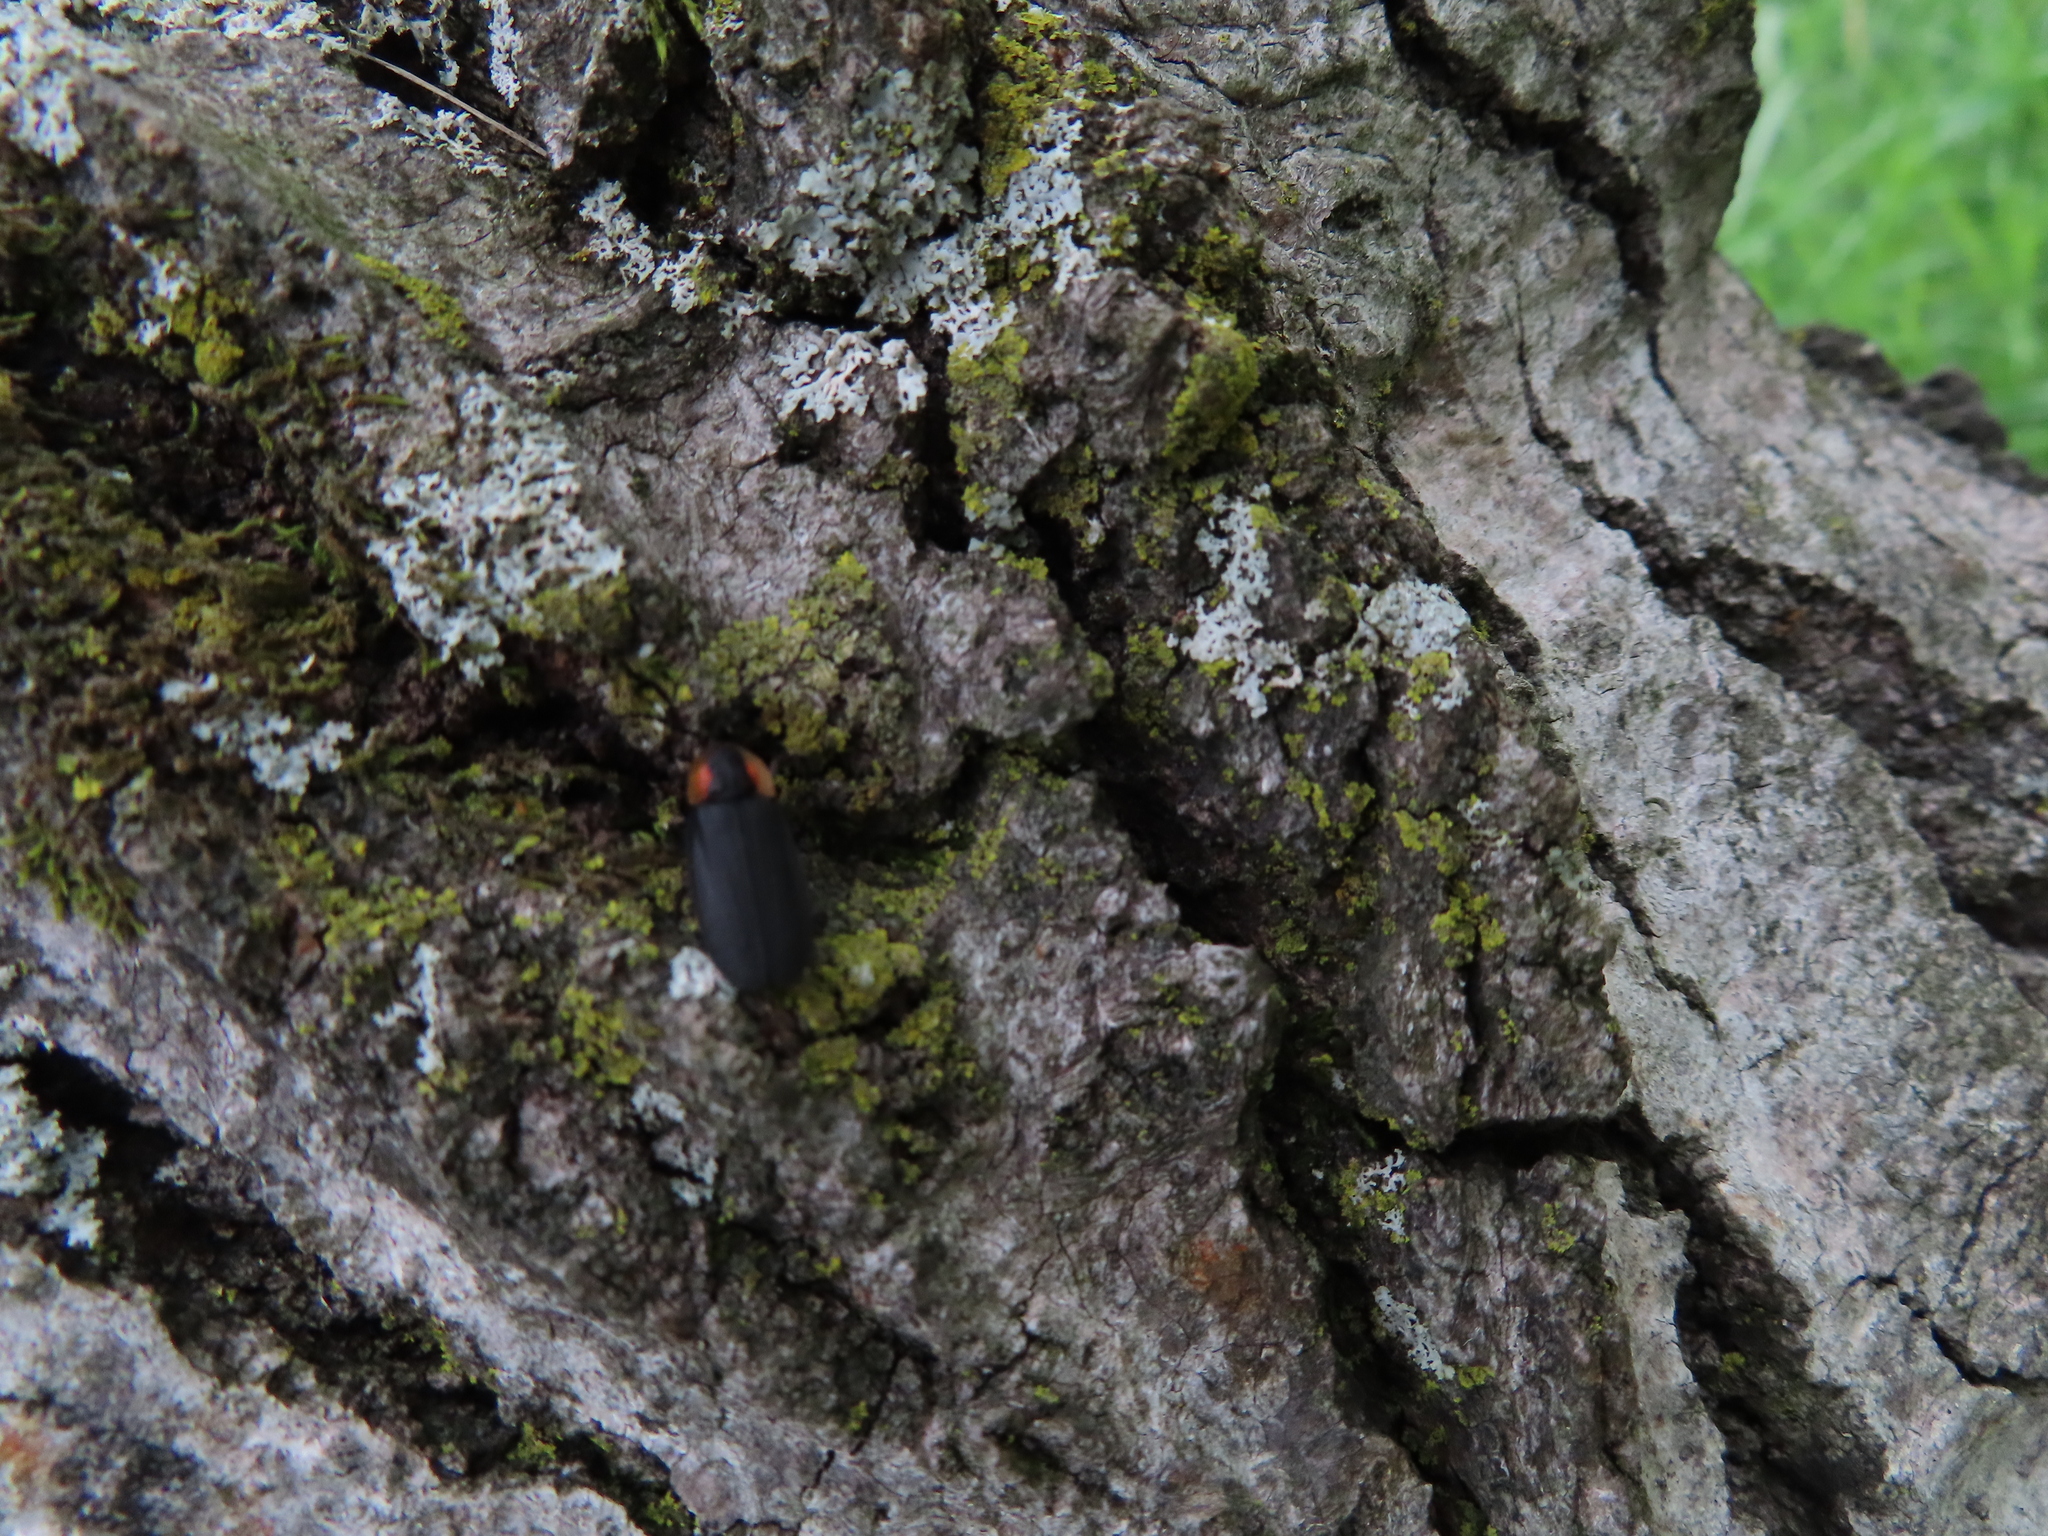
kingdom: Animalia
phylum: Arthropoda
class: Insecta
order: Coleoptera
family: Lampyridae
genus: Lucidota
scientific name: Lucidota atra
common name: Black firefly
